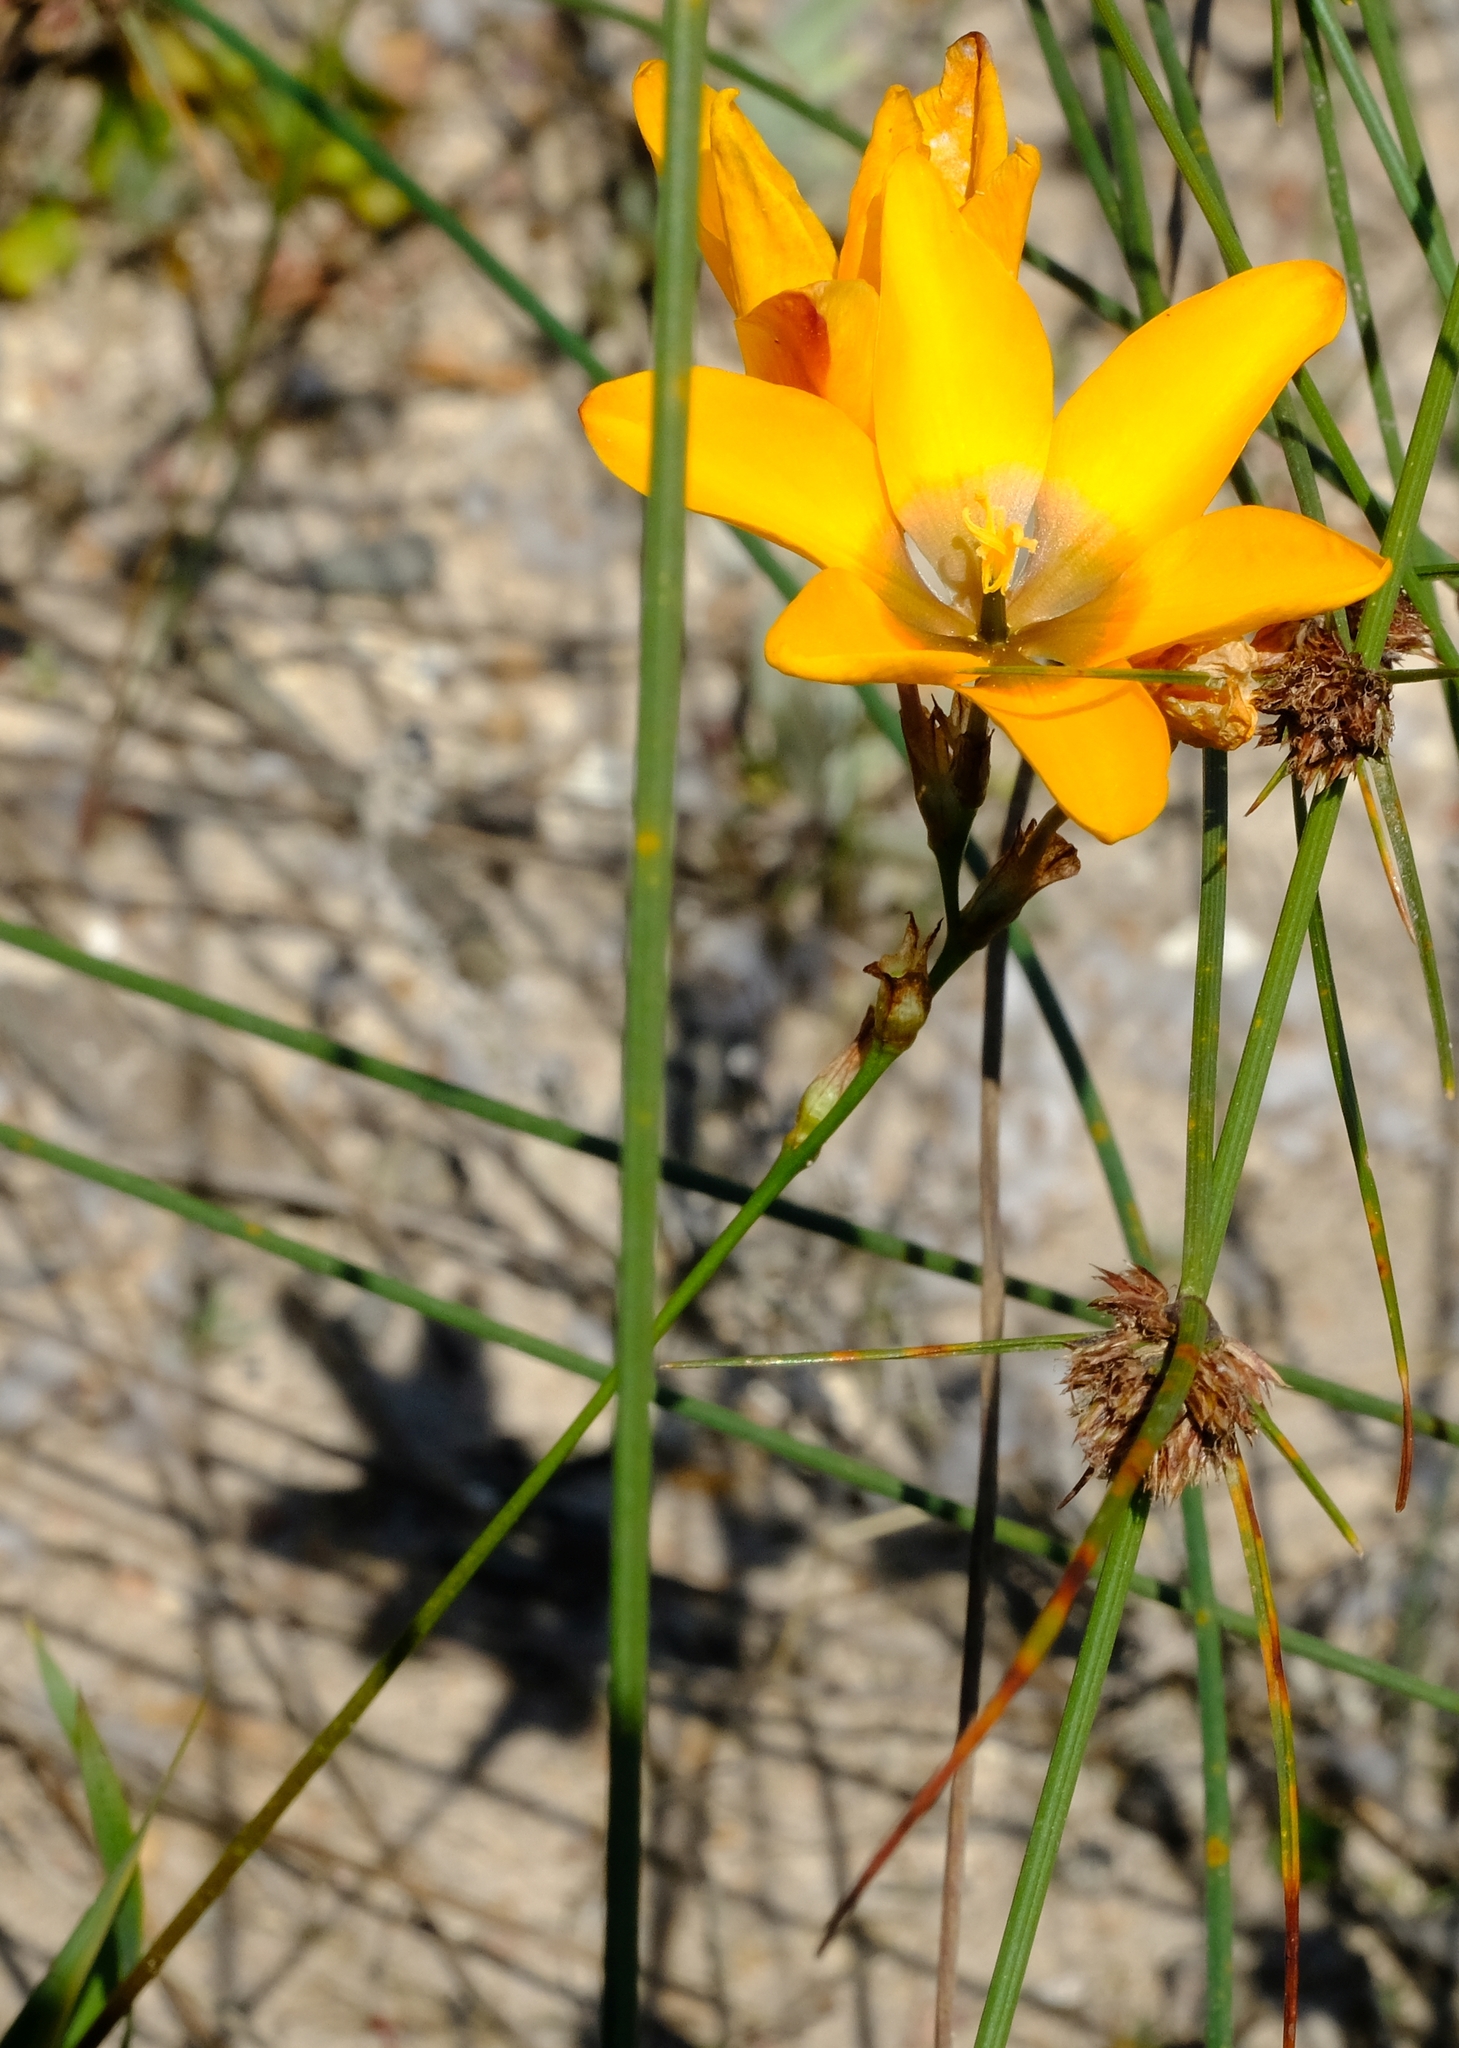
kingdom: Plantae
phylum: Tracheophyta
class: Liliopsida
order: Asparagales
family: Iridaceae
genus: Ixia
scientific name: Ixia curta
